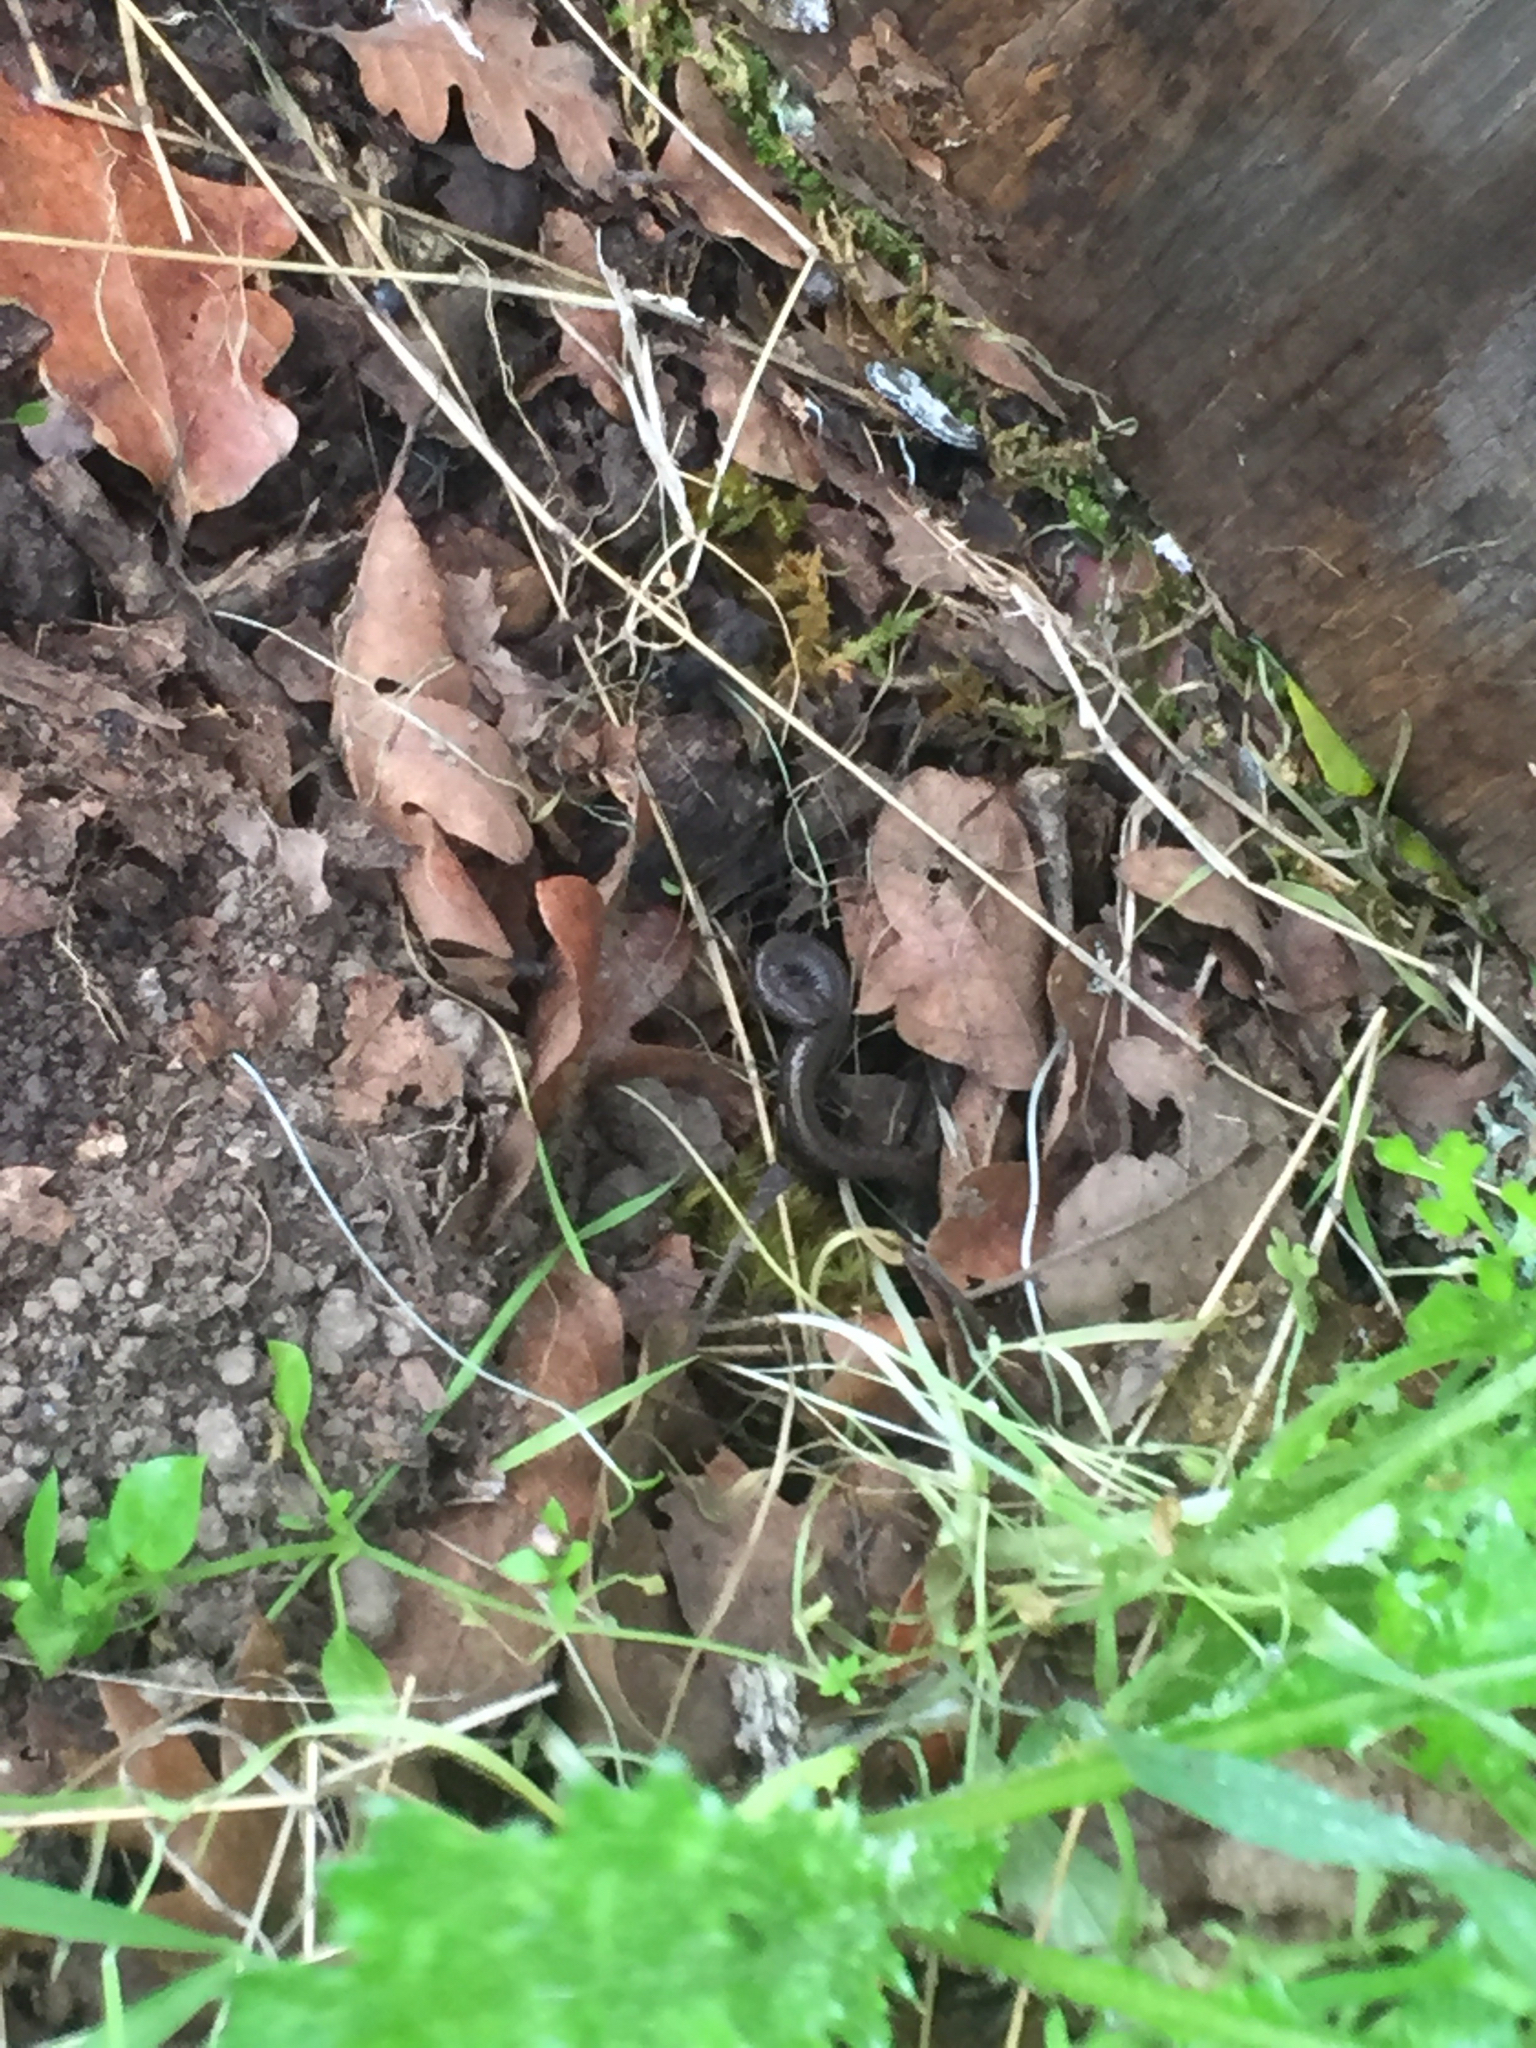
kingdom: Animalia
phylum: Chordata
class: Amphibia
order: Caudata
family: Plethodontidae
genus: Batrachoseps
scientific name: Batrachoseps attenuatus
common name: California slender salamander
